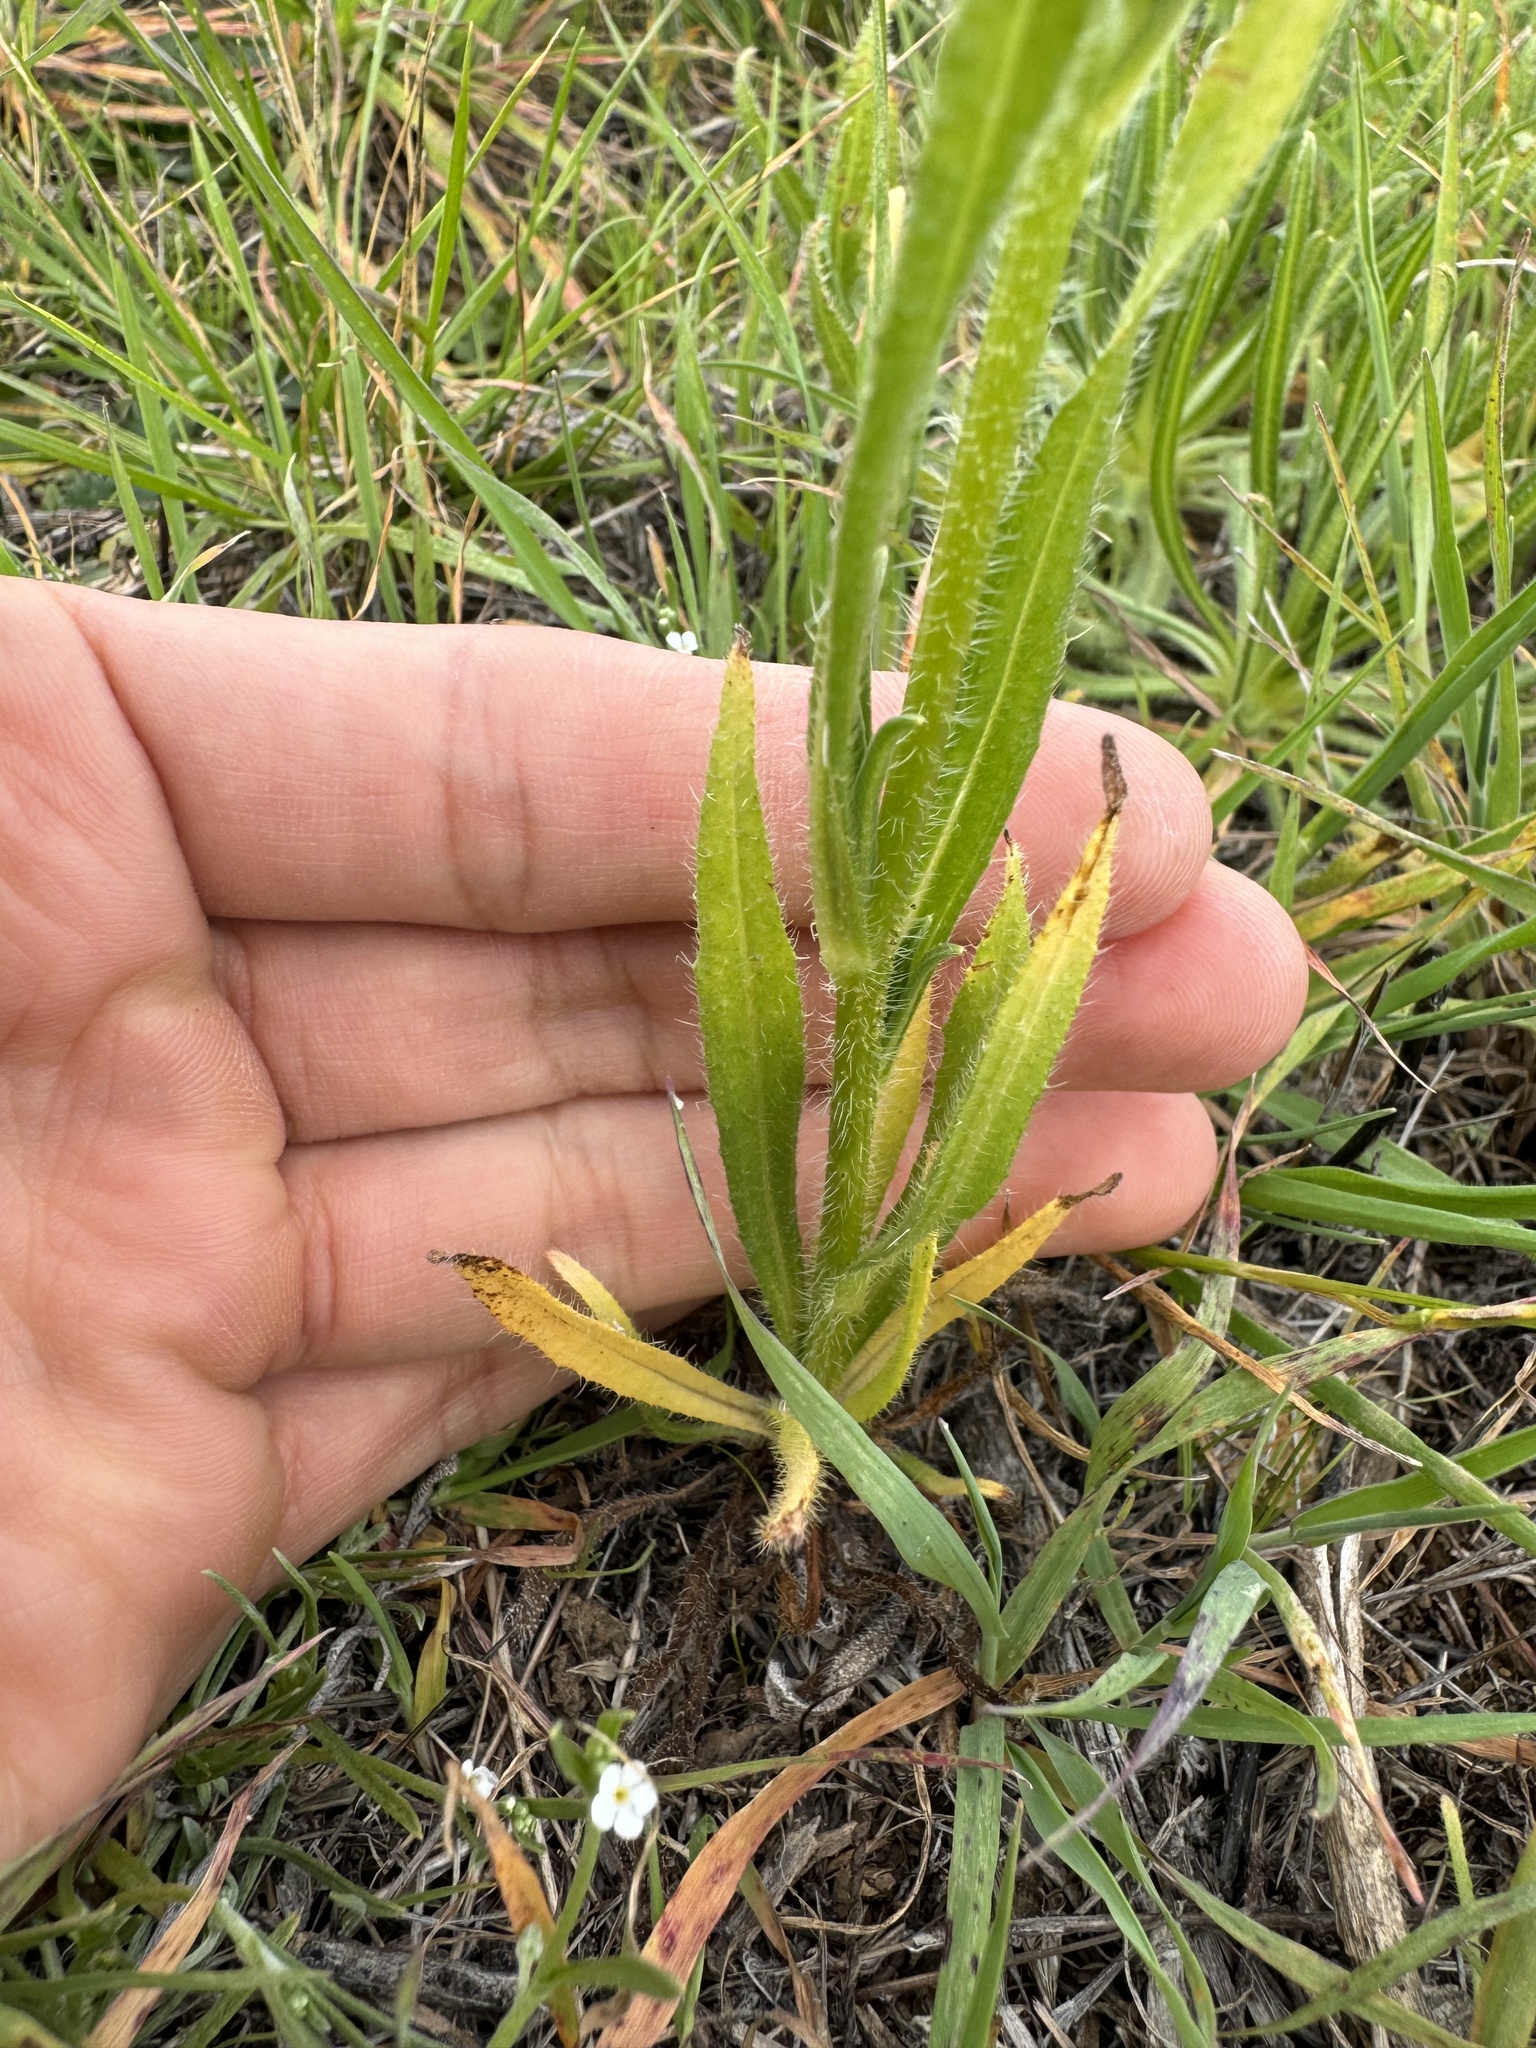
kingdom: Plantae
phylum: Tracheophyta
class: Magnoliopsida
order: Boraginales
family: Boraginaceae
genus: Amsinckia
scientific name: Amsinckia menziesii
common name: Menzies' fiddleneck
